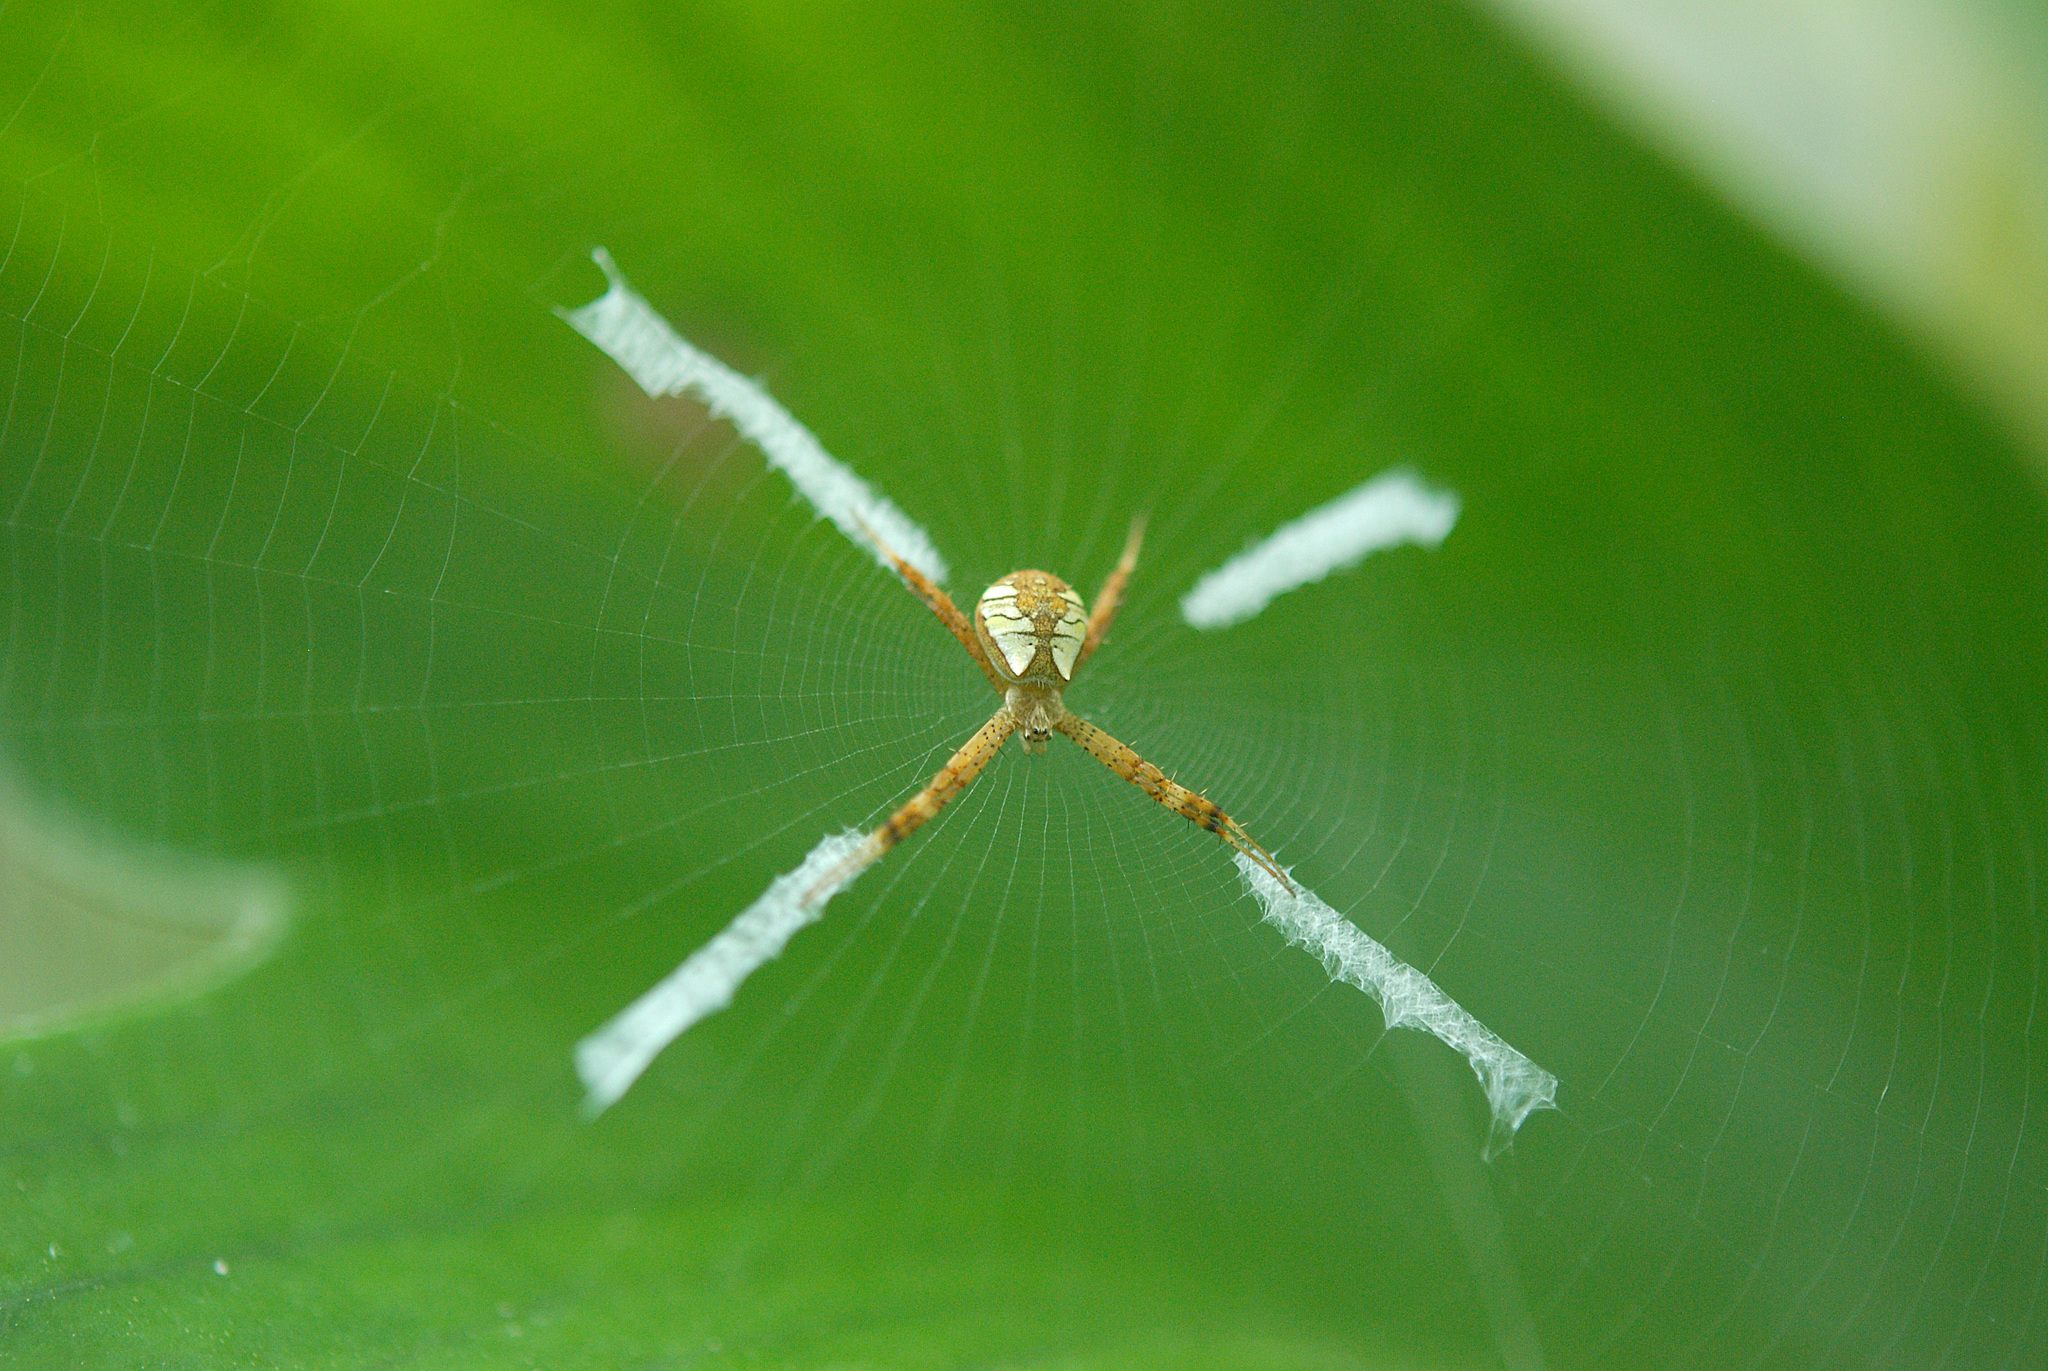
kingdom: Animalia
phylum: Arthropoda
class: Arachnida
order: Araneae
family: Araneidae
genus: Argiope
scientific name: Argiope perforata
